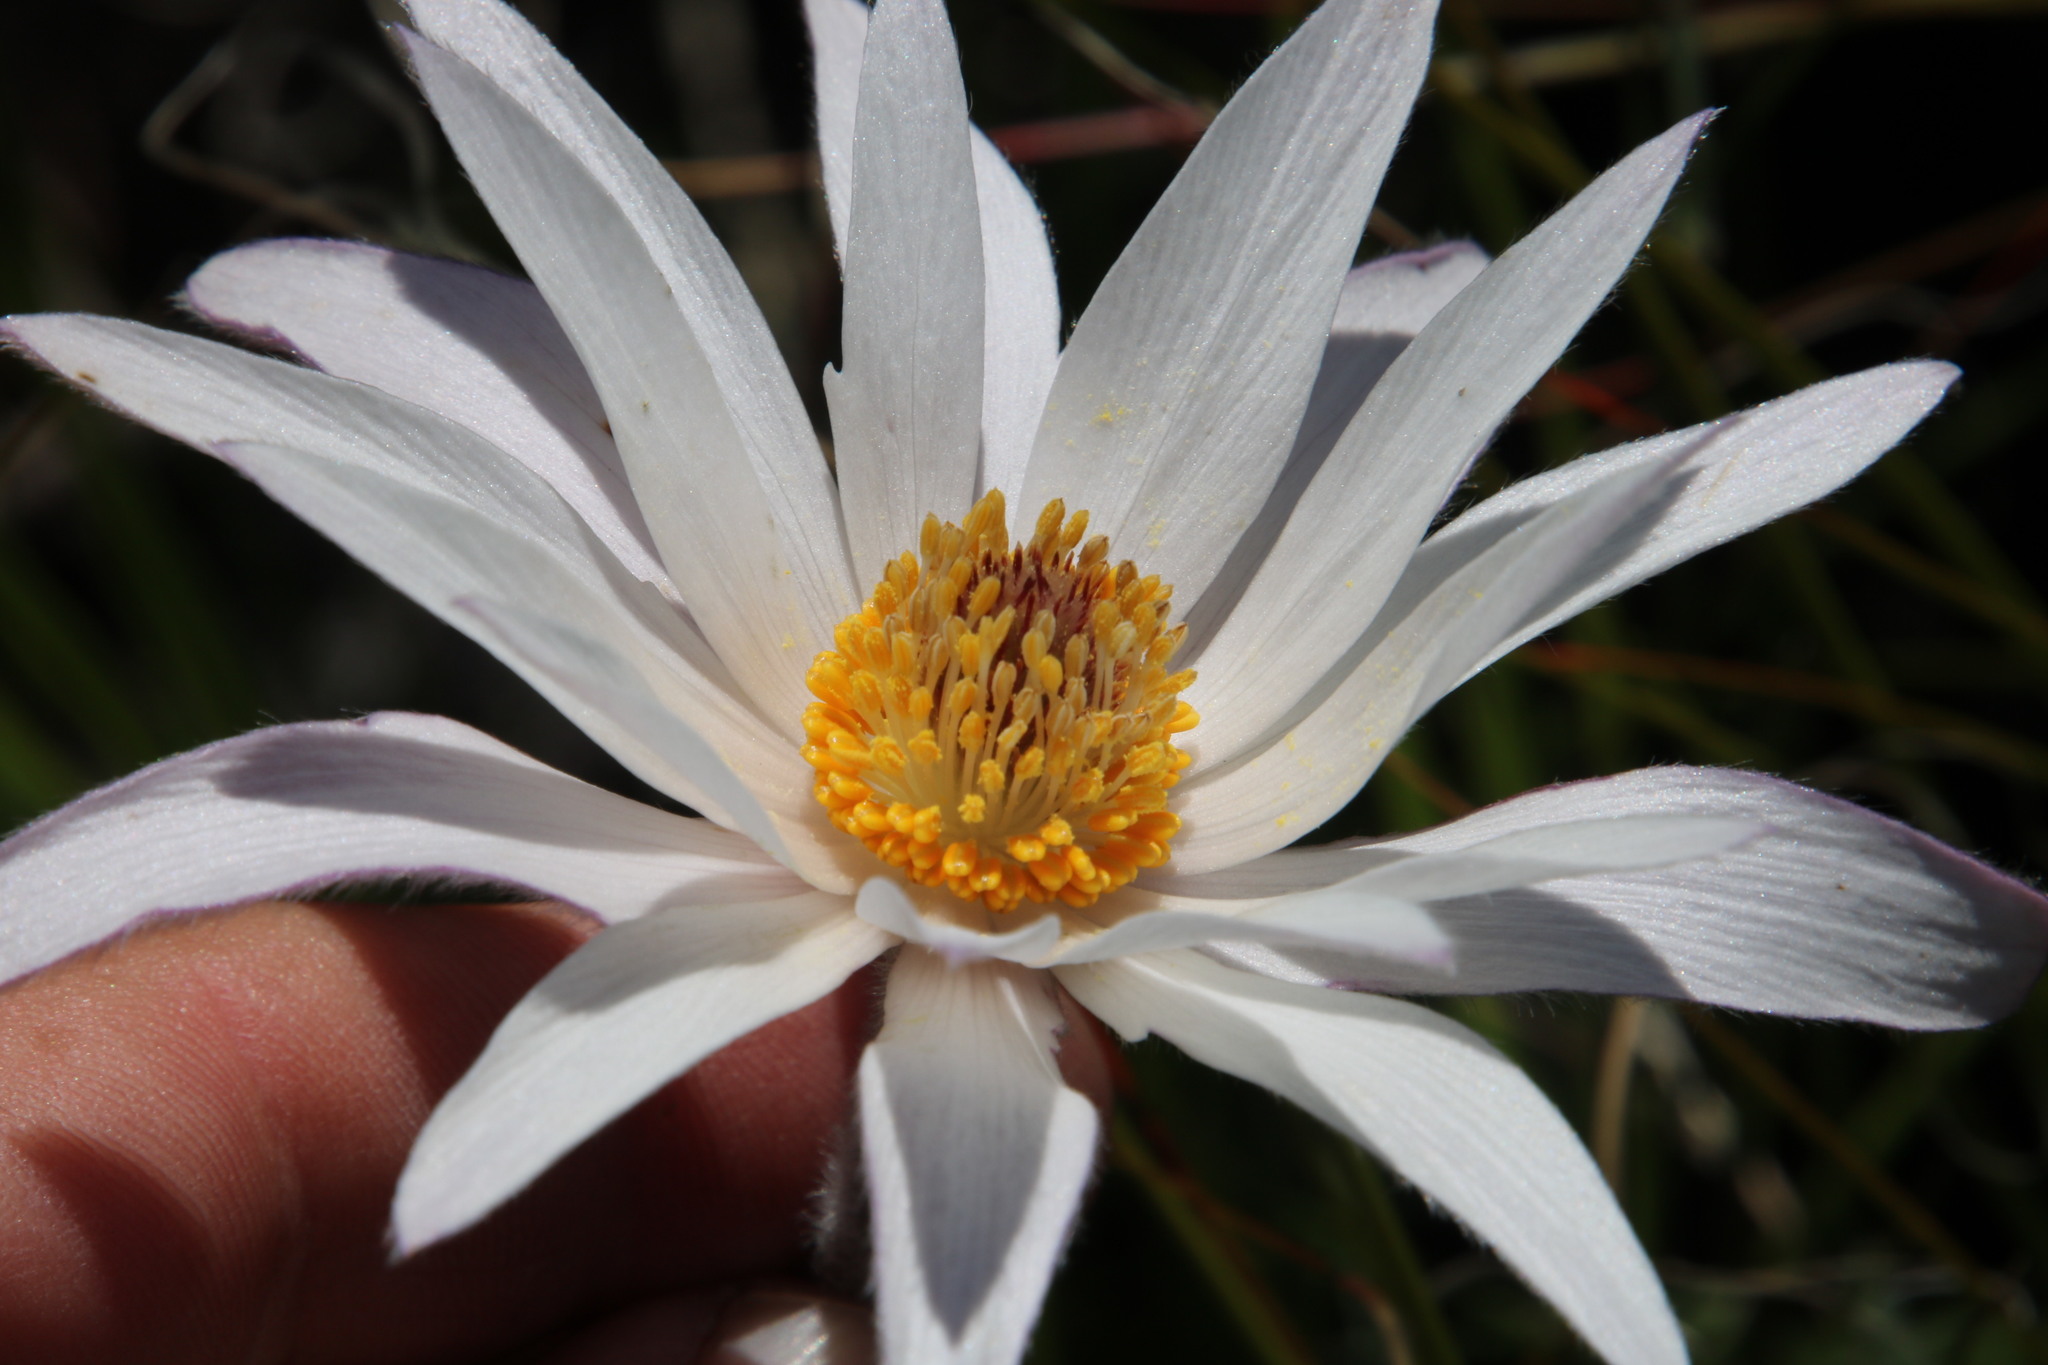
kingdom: Plantae
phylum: Tracheophyta
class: Magnoliopsida
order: Ranunculales
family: Ranunculaceae
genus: Knowltonia
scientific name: Knowltonia tenuifolia
